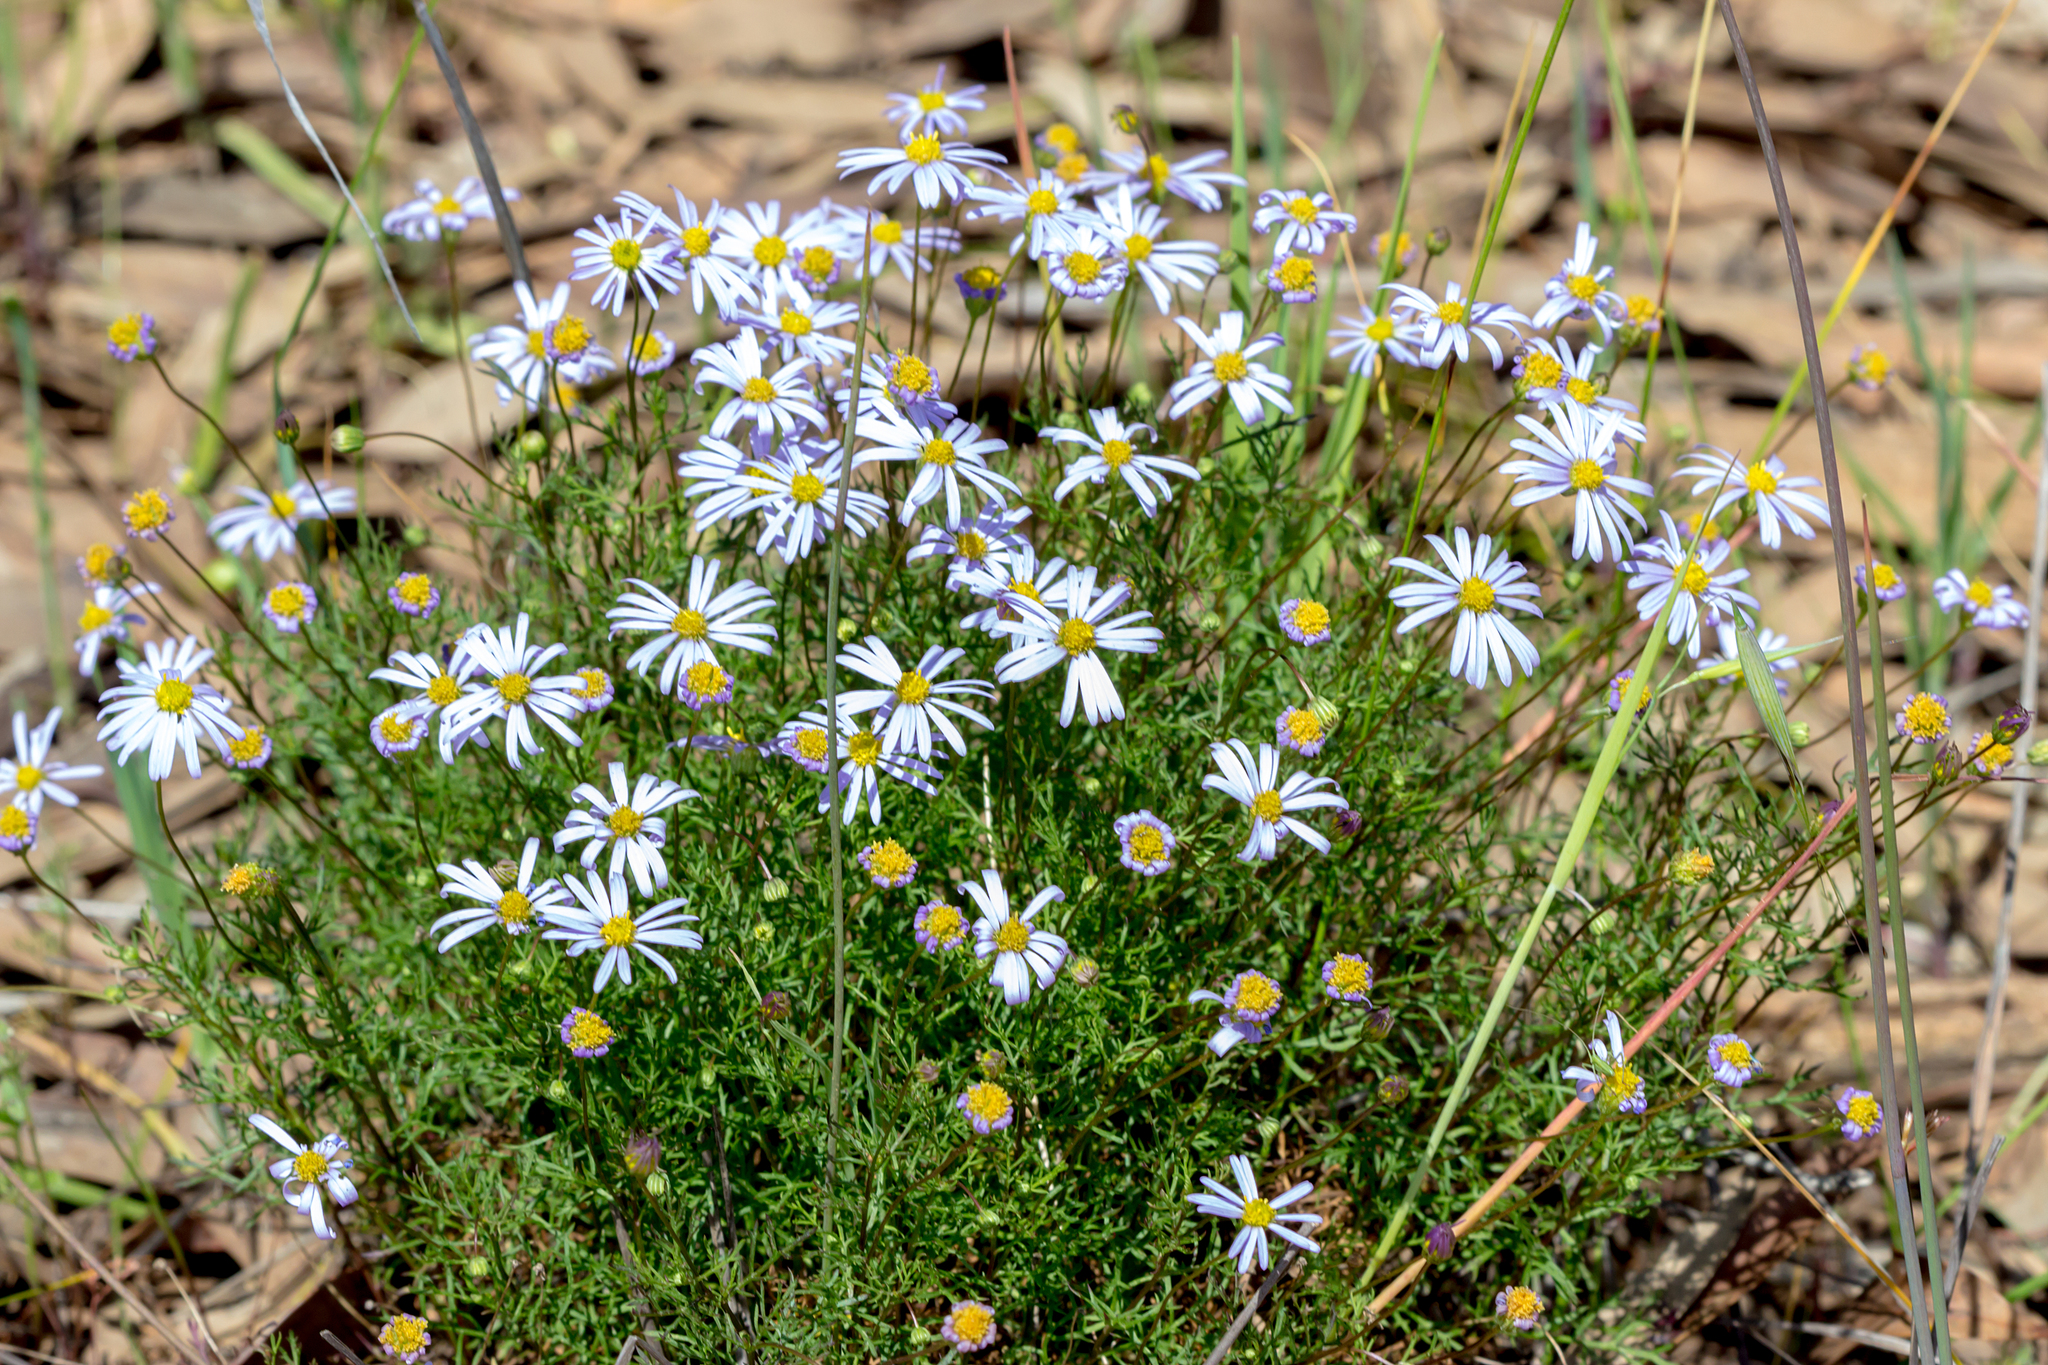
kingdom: Plantae
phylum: Tracheophyta
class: Magnoliopsida
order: Asterales
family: Asteraceae
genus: Brachyscome
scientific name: Brachyscome multifida
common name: Cut-leaf daisy
